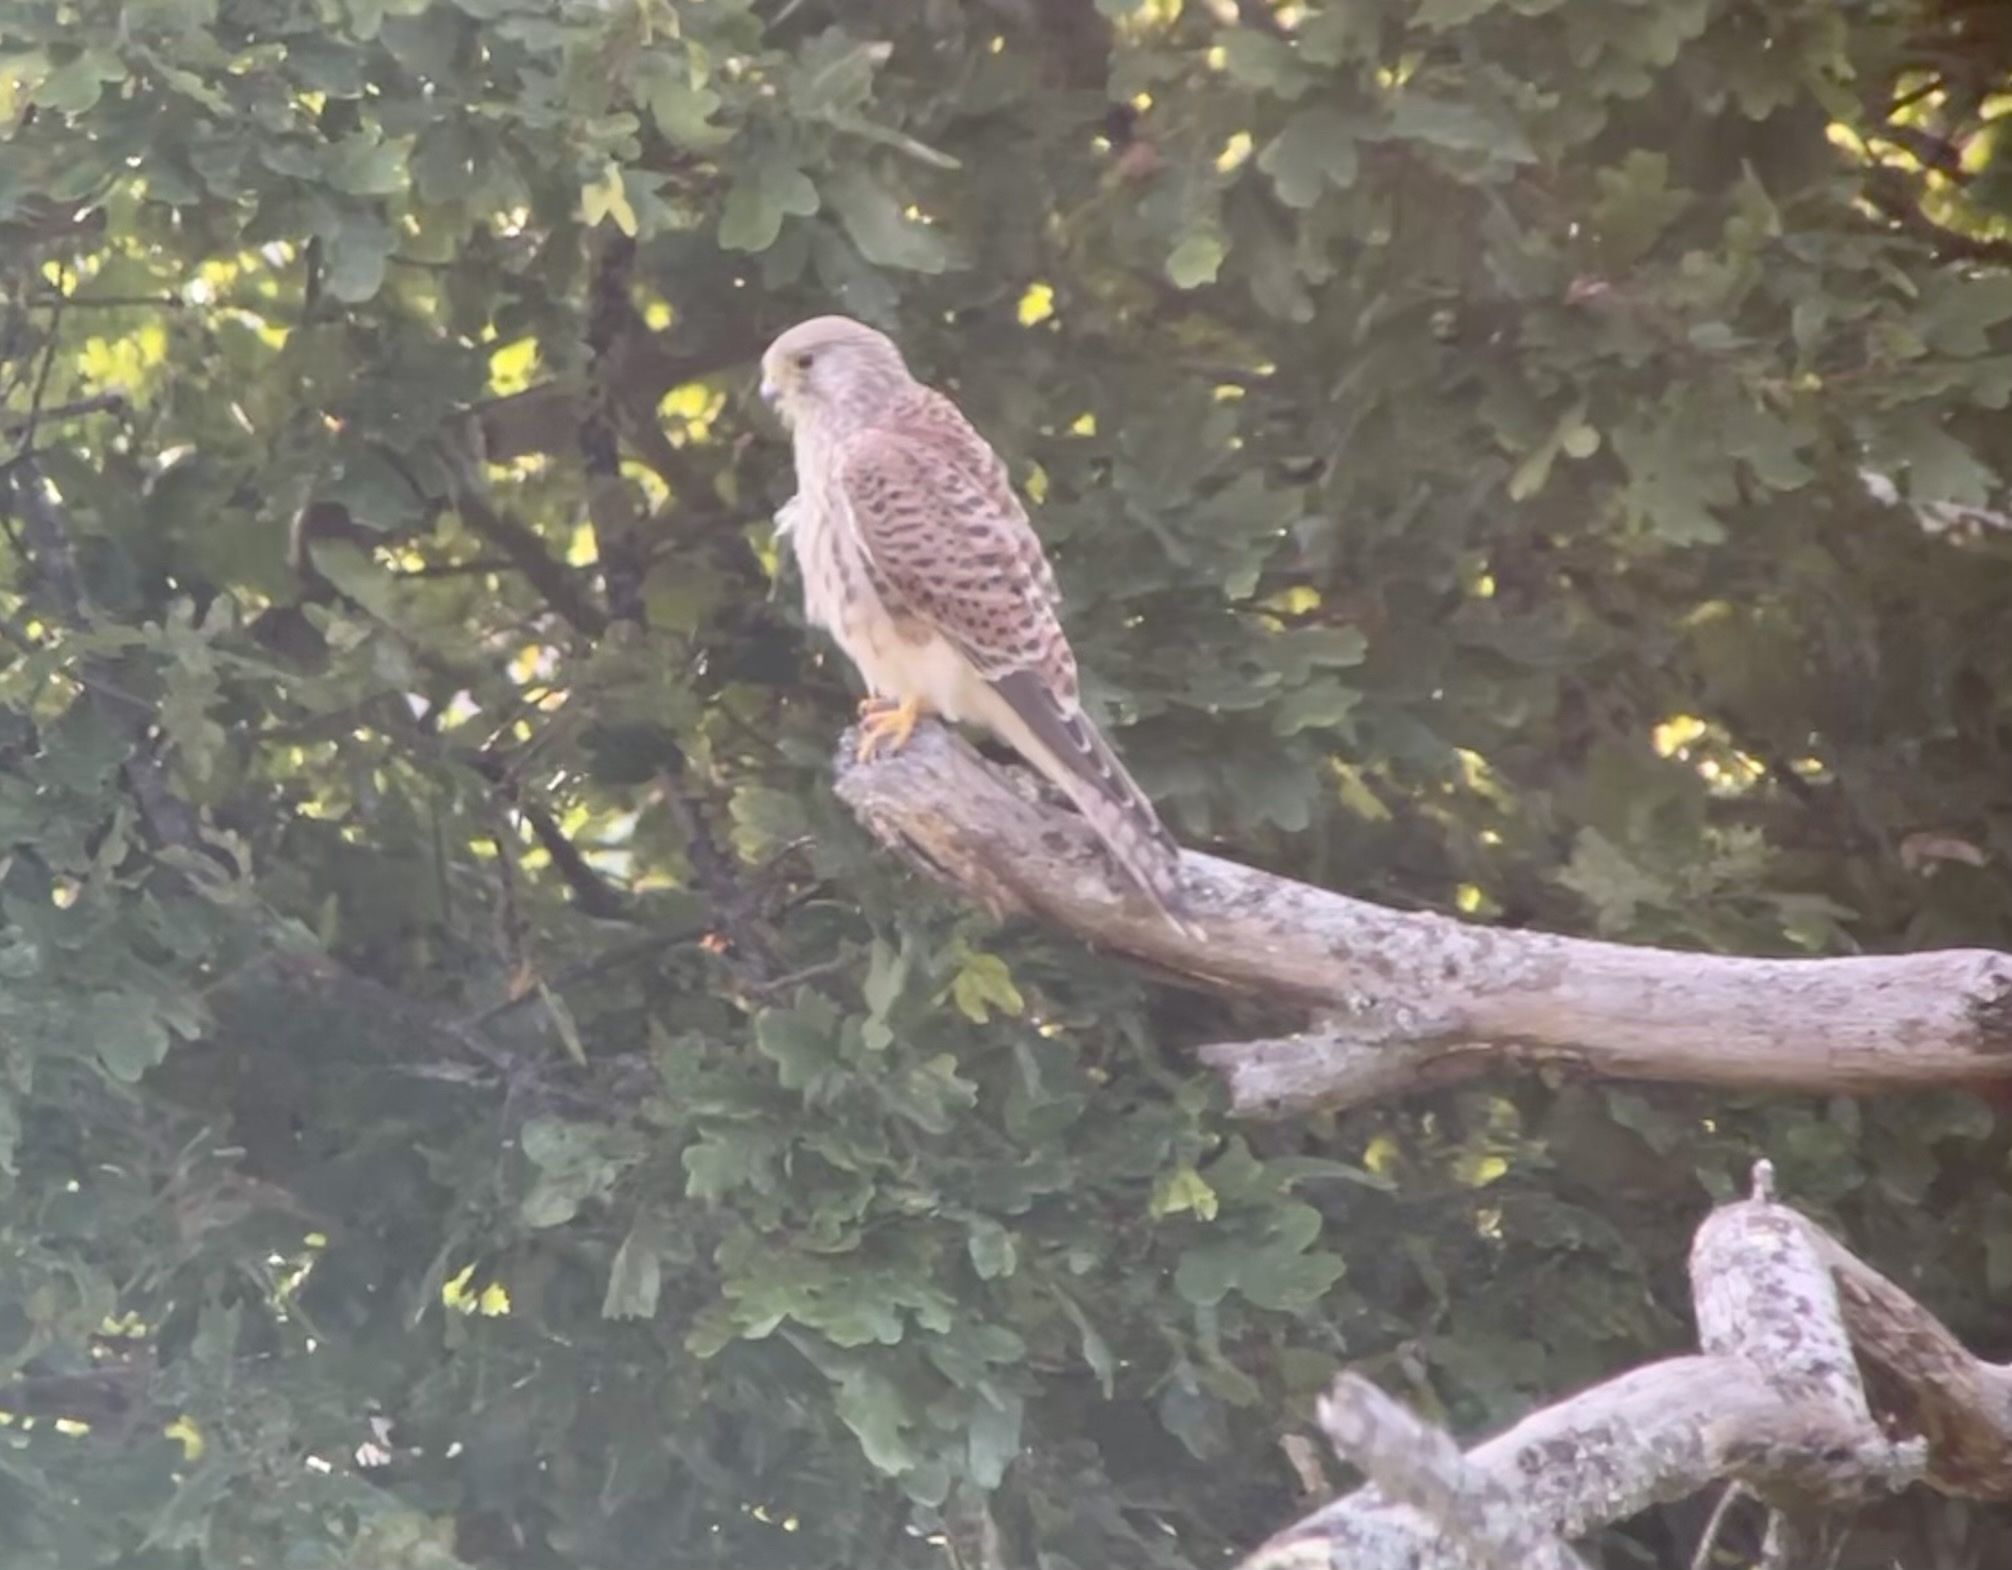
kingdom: Animalia
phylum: Chordata
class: Aves
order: Falconiformes
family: Falconidae
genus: Falco
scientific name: Falco tinnunculus
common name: Common kestrel
